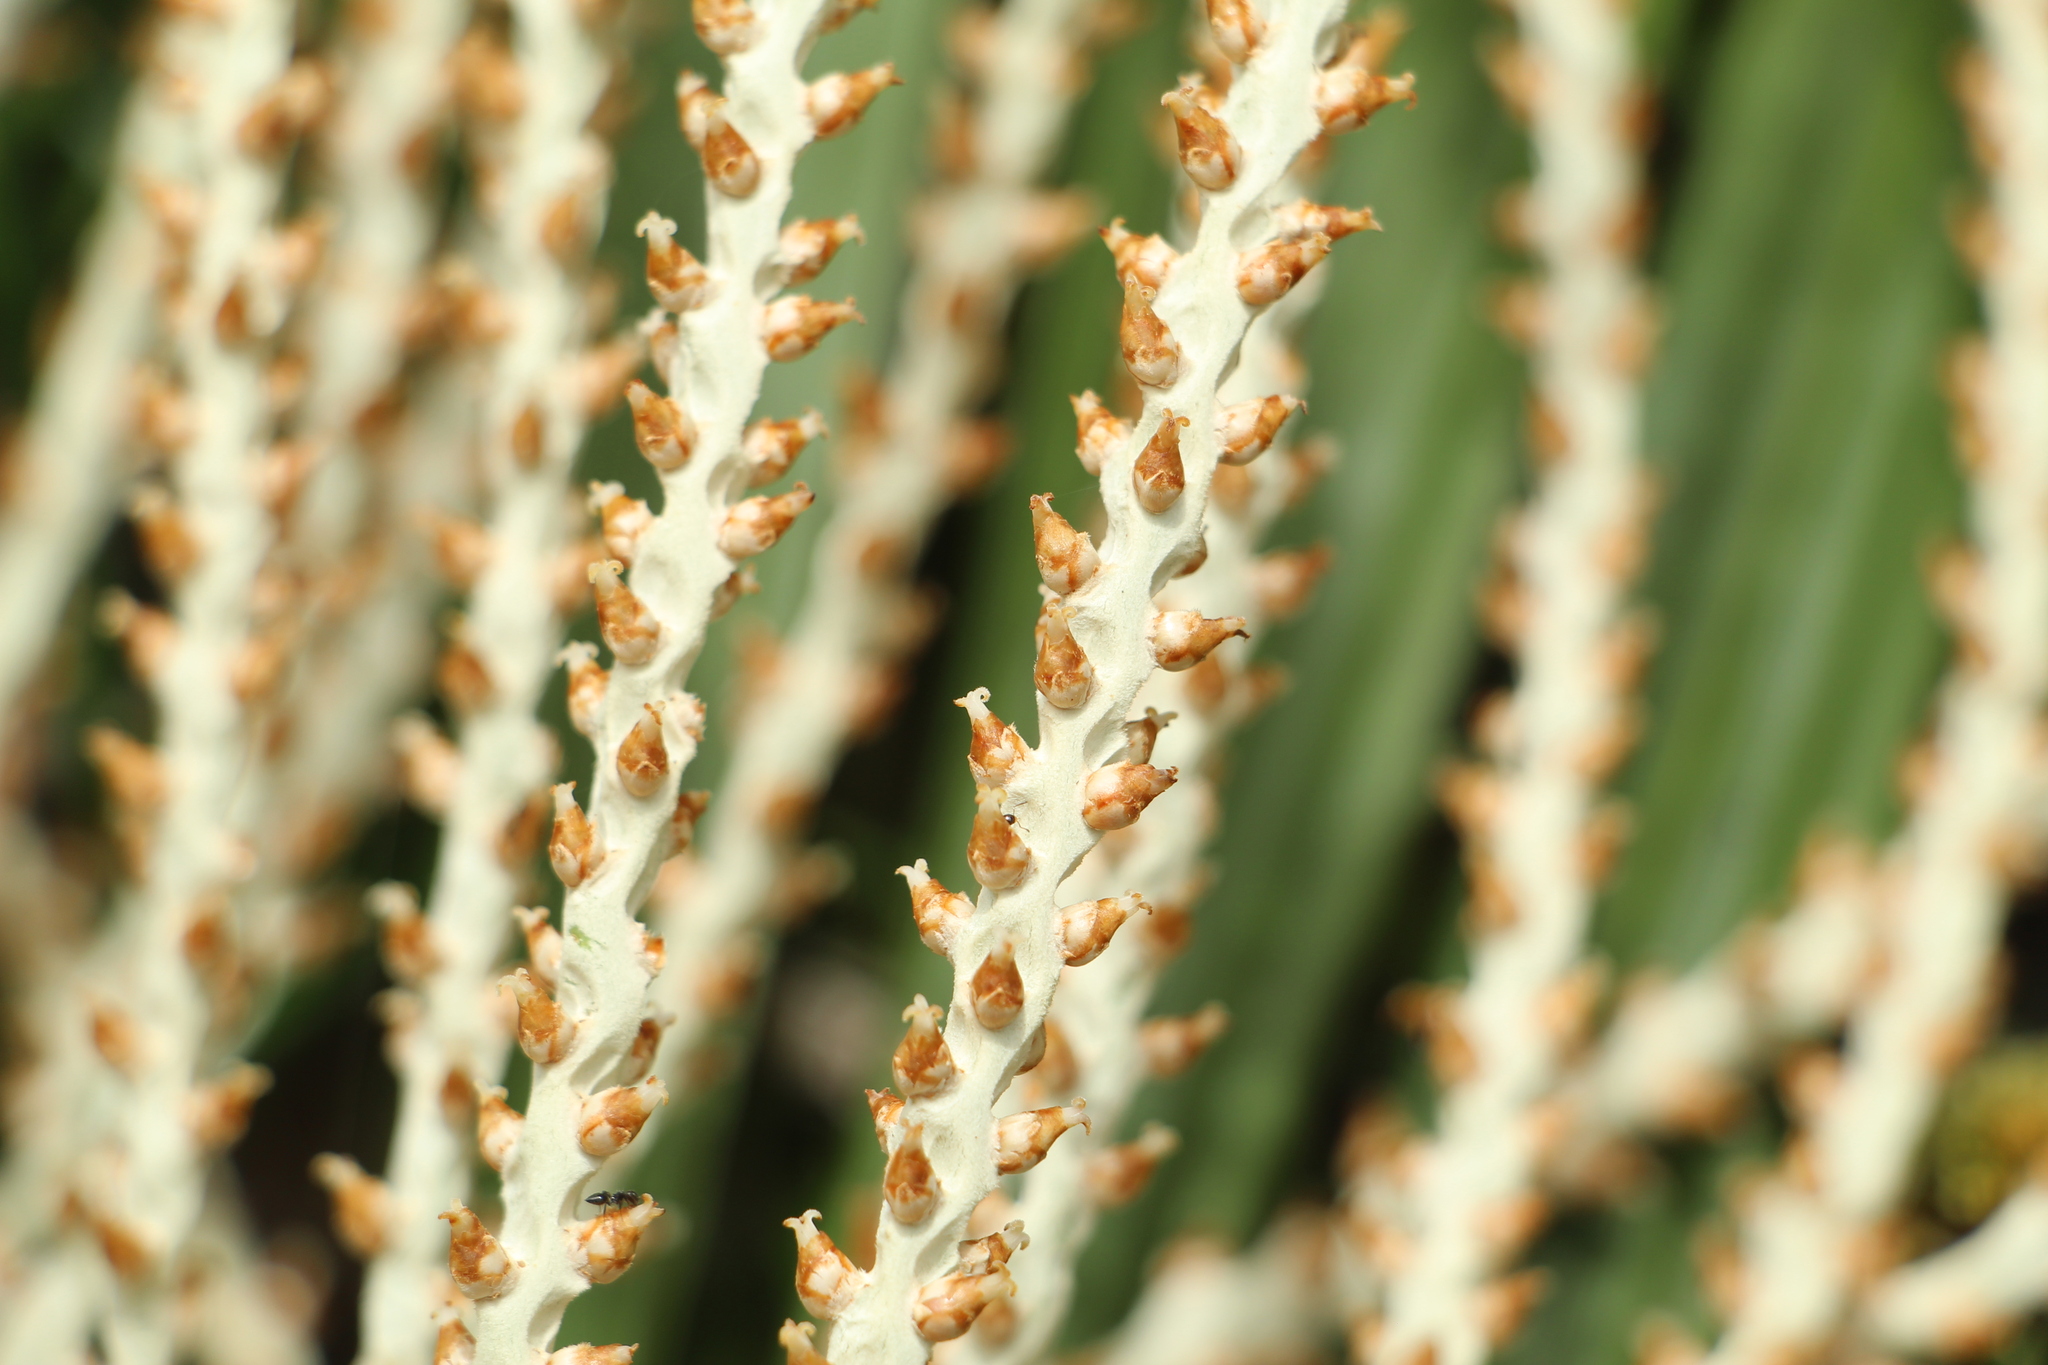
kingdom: Plantae
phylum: Tracheophyta
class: Liliopsida
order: Arecales
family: Arecaceae
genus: Euterpe
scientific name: Euterpe precatoria
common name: Mountain-cabbage
